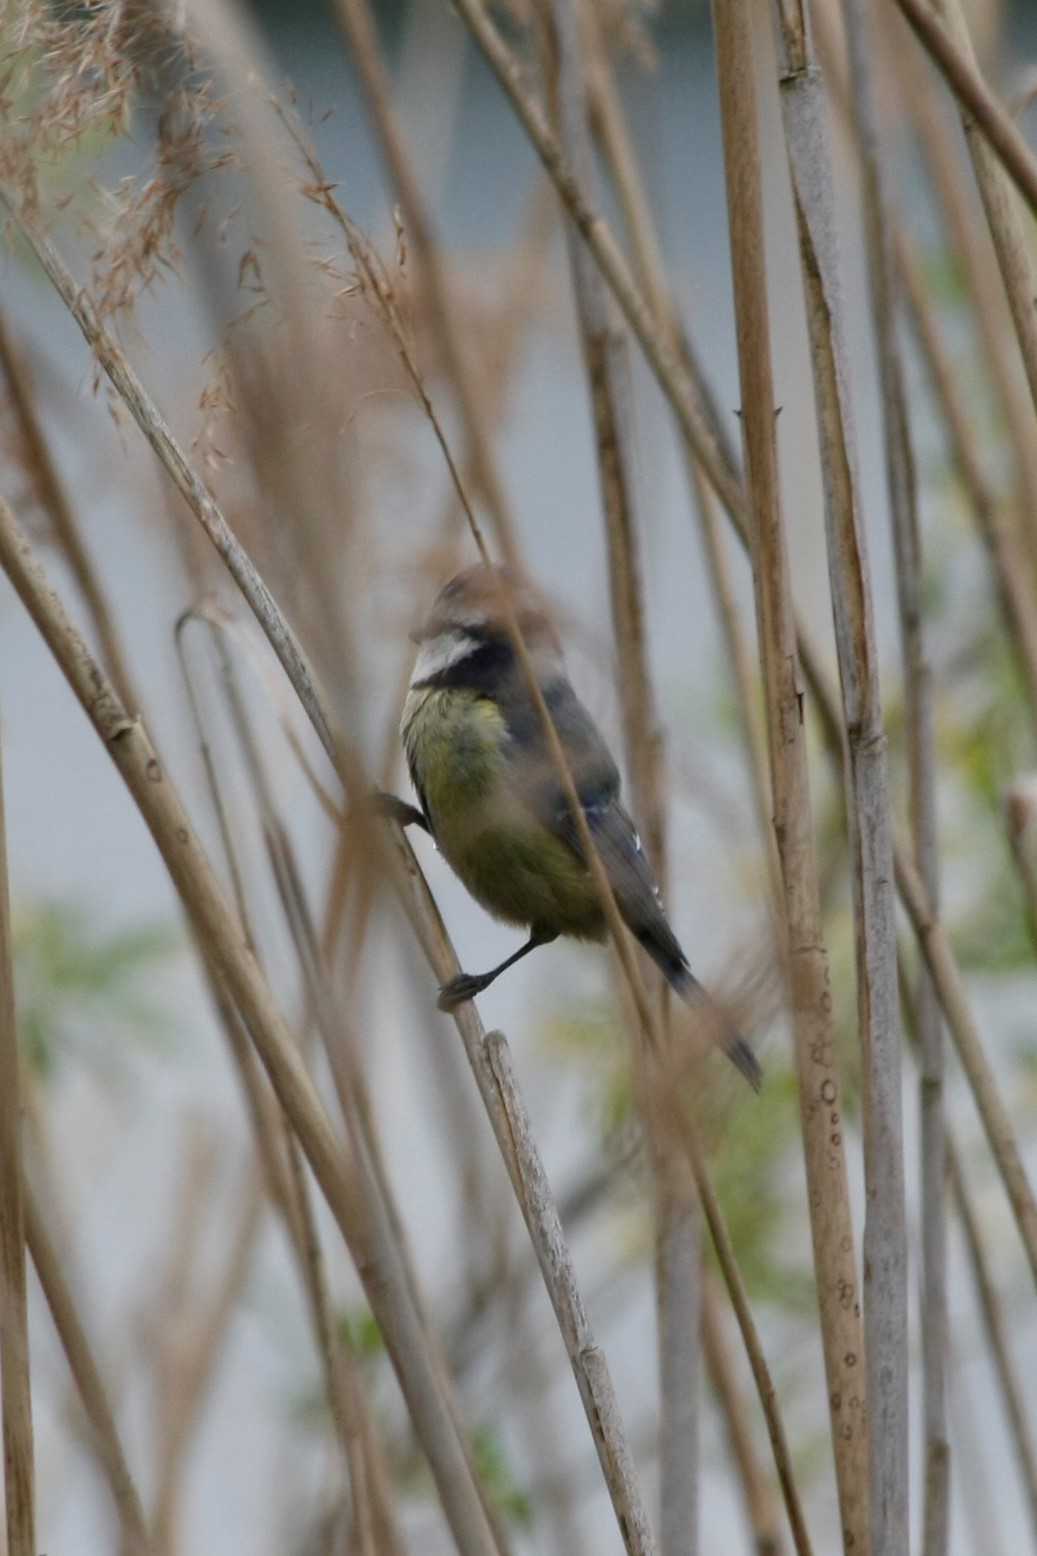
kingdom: Animalia
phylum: Chordata
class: Aves
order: Passeriformes
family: Paridae
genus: Cyanistes
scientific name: Cyanistes caeruleus
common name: Eurasian blue tit
